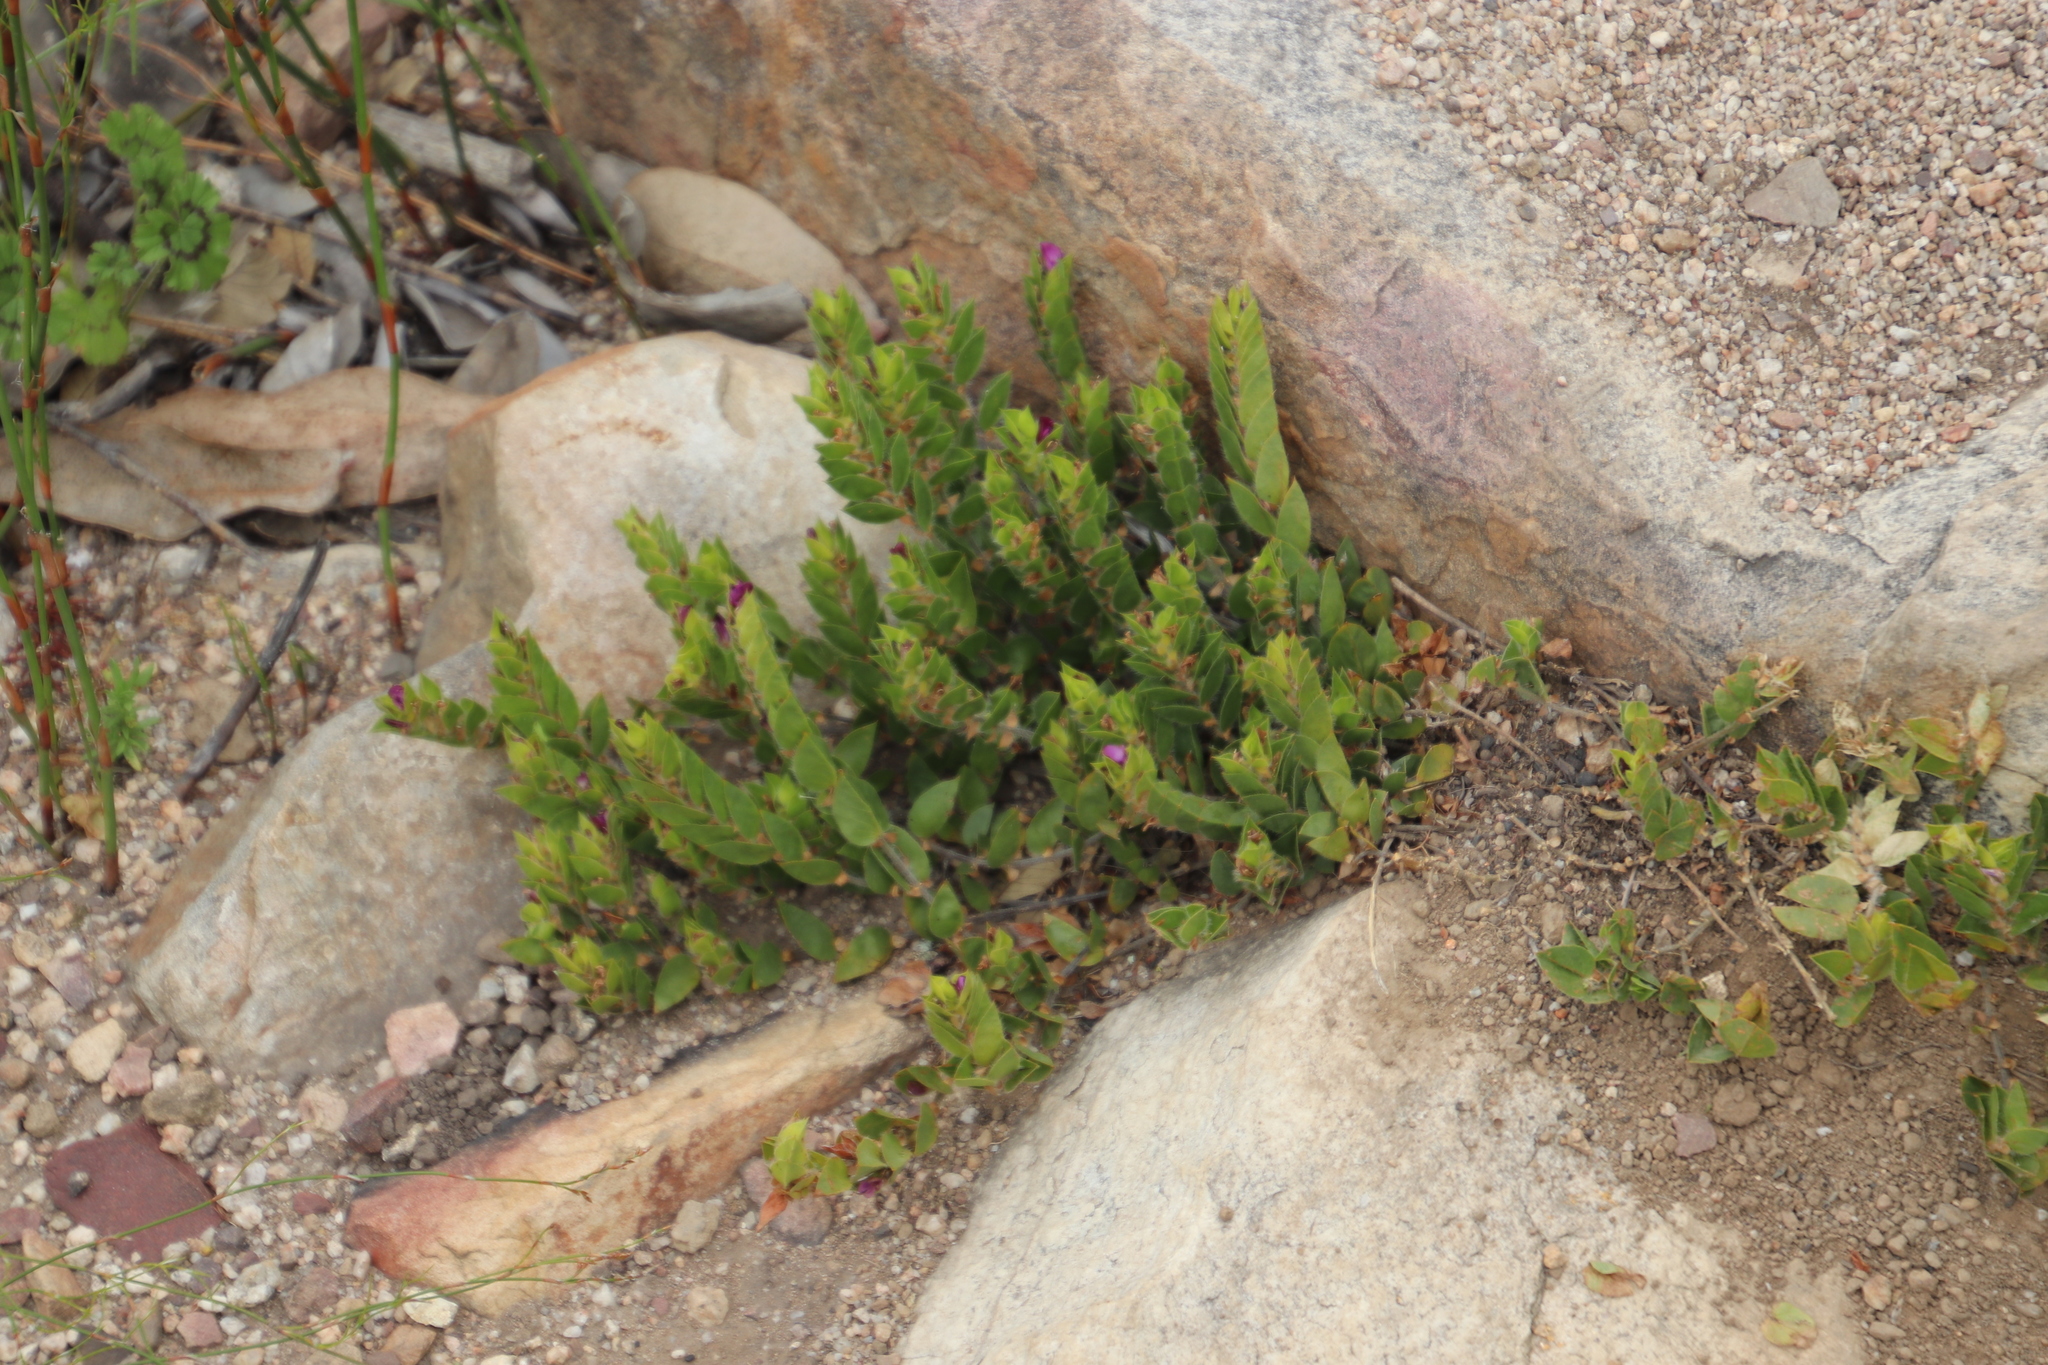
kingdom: Plantae
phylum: Tracheophyta
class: Magnoliopsida
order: Fabales
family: Fabaceae
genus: Psoralea
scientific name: Psoralea imbricata
